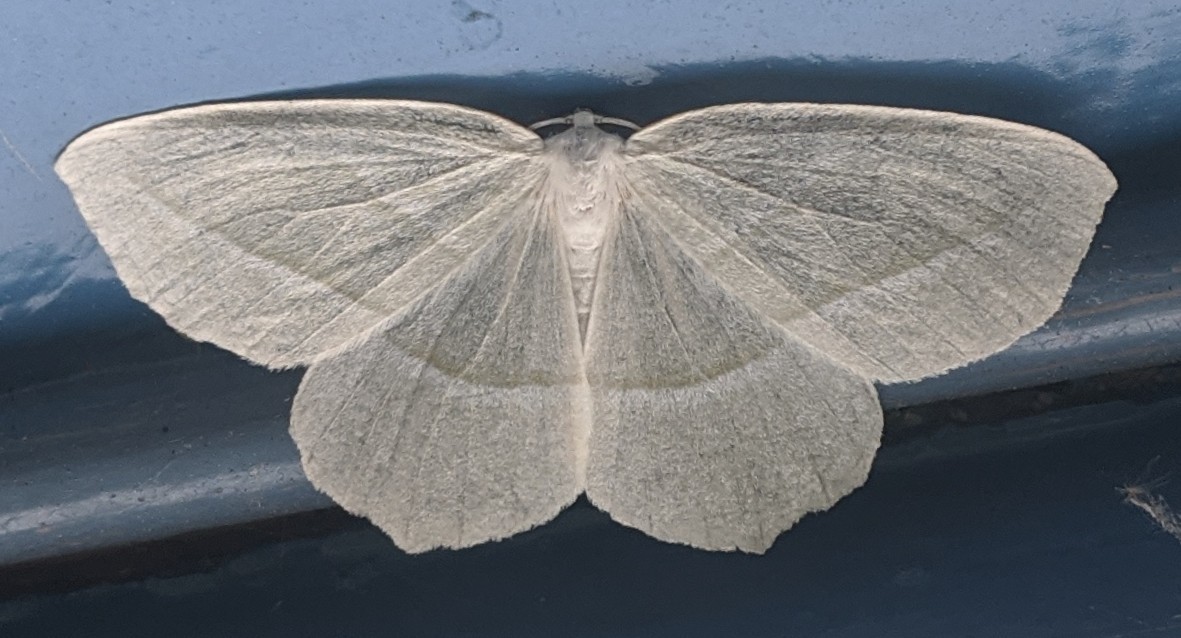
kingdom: Animalia
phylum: Arthropoda
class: Insecta
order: Lepidoptera
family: Geometridae
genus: Campaea
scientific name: Campaea perlata
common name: Fringed looper
